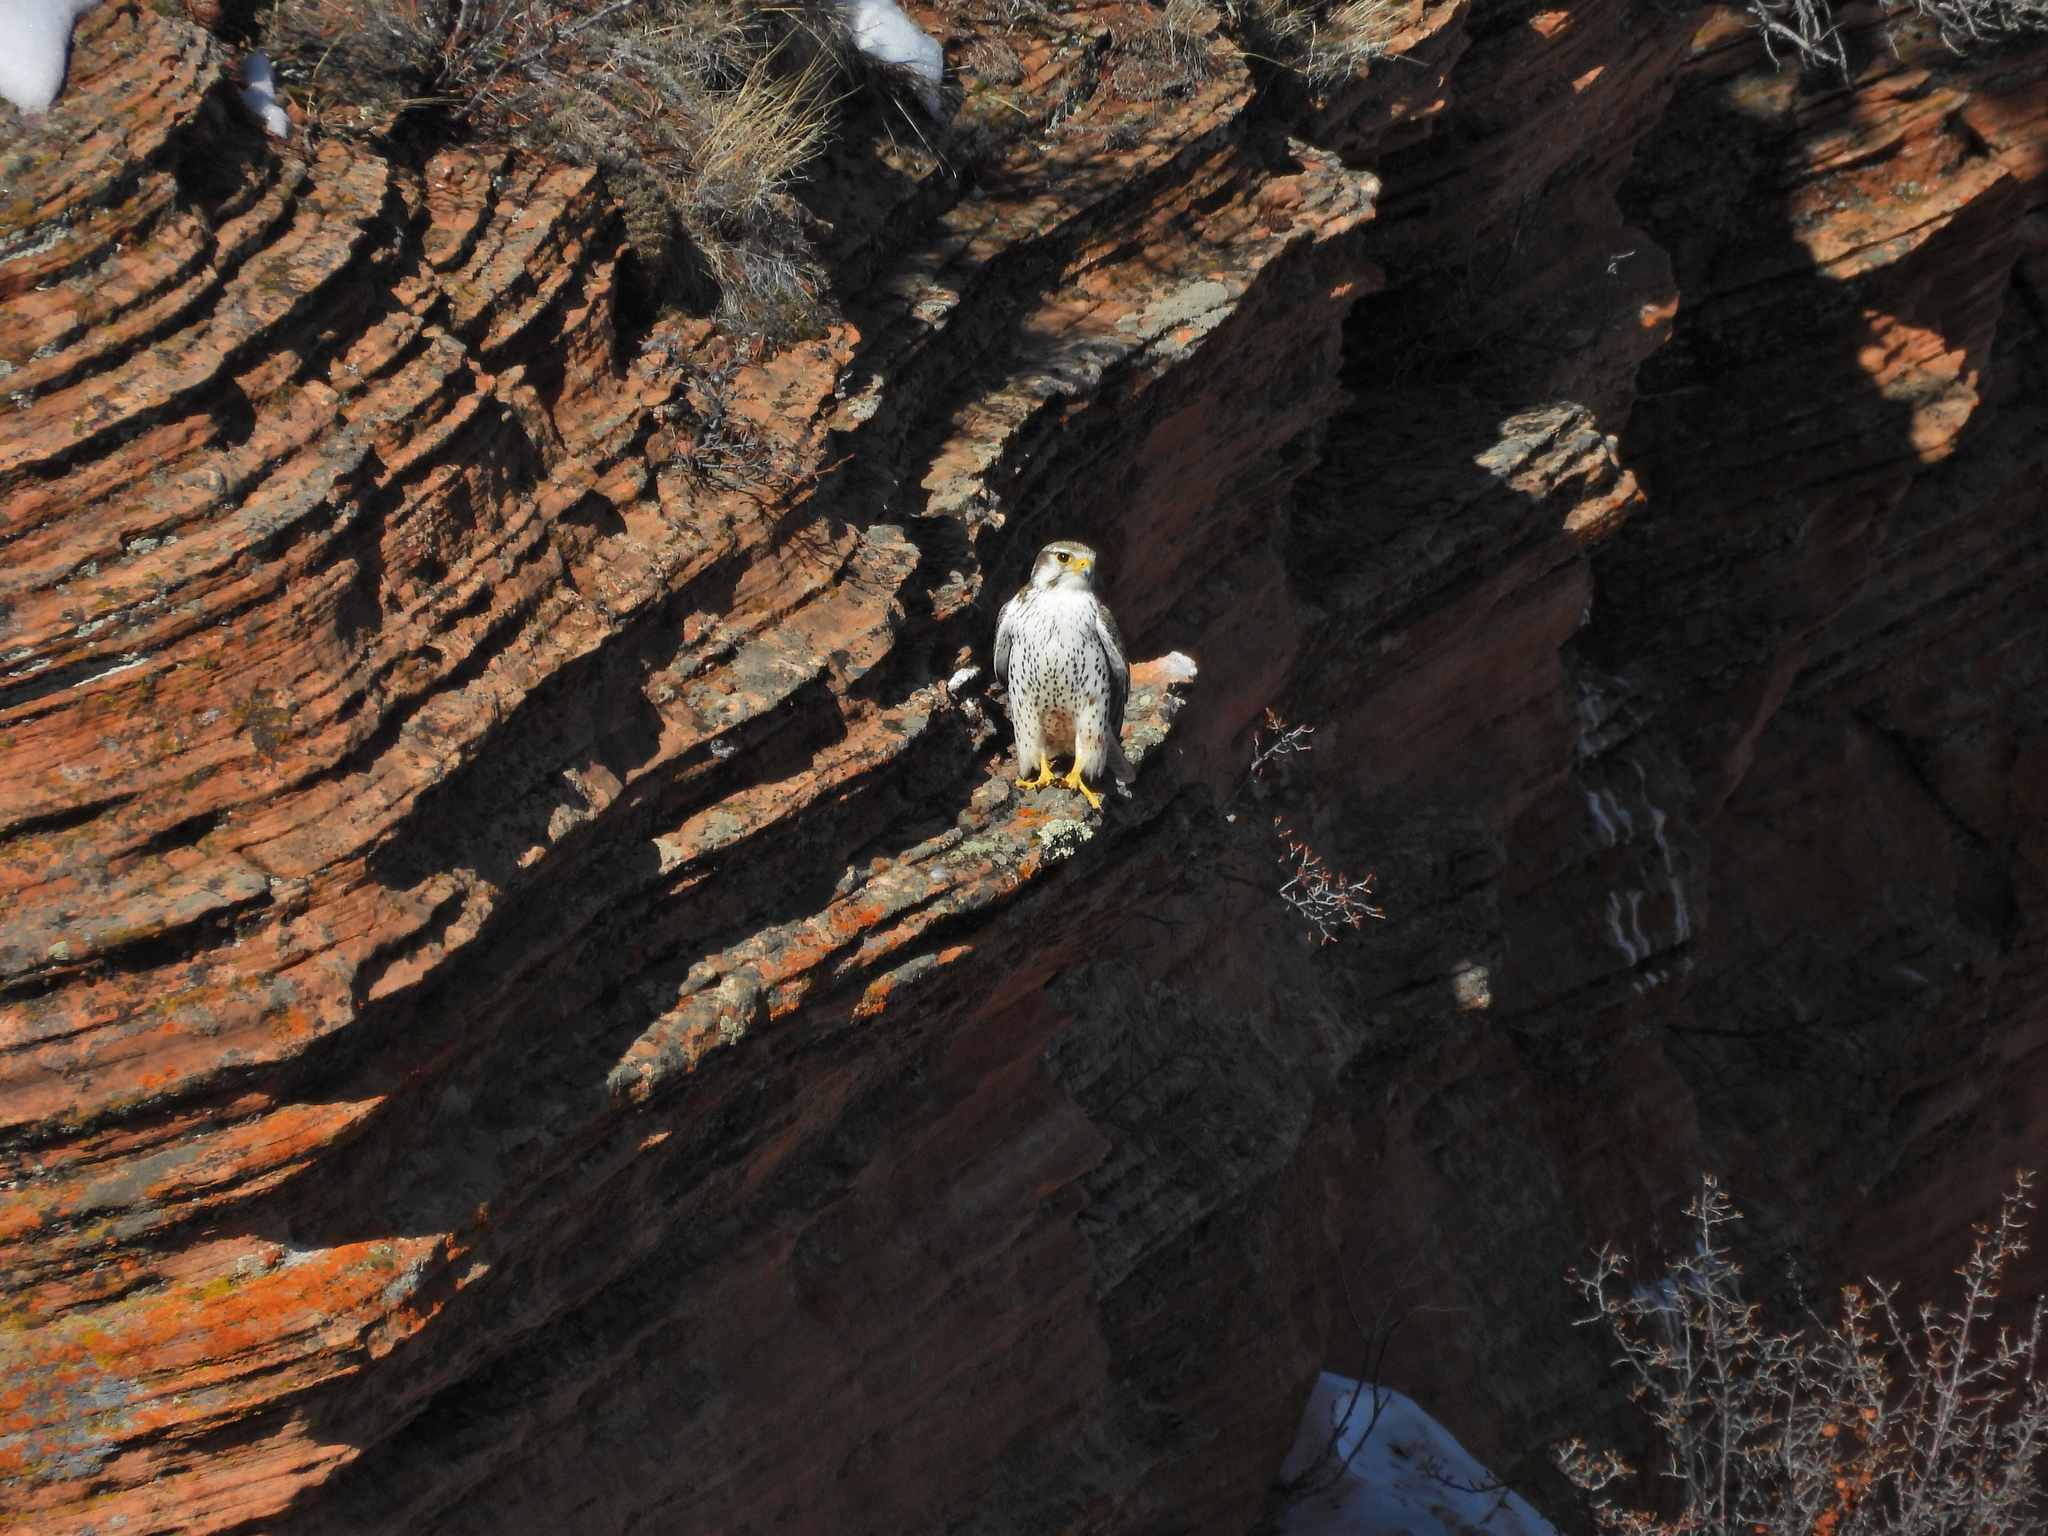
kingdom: Animalia
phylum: Chordata
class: Aves
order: Falconiformes
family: Falconidae
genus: Falco
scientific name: Falco mexicanus
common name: Prairie falcon
